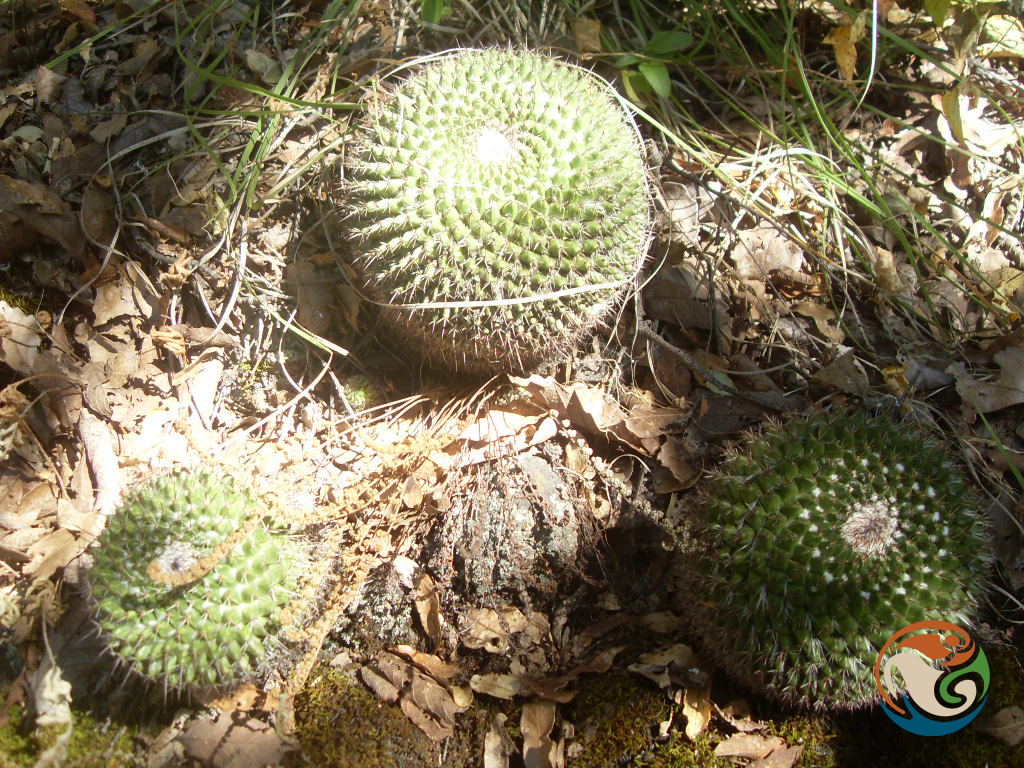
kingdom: Plantae
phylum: Tracheophyta
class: Magnoliopsida
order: Caryophyllales
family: Cactaceae
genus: Mammillaria
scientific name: Mammillaria mystax
